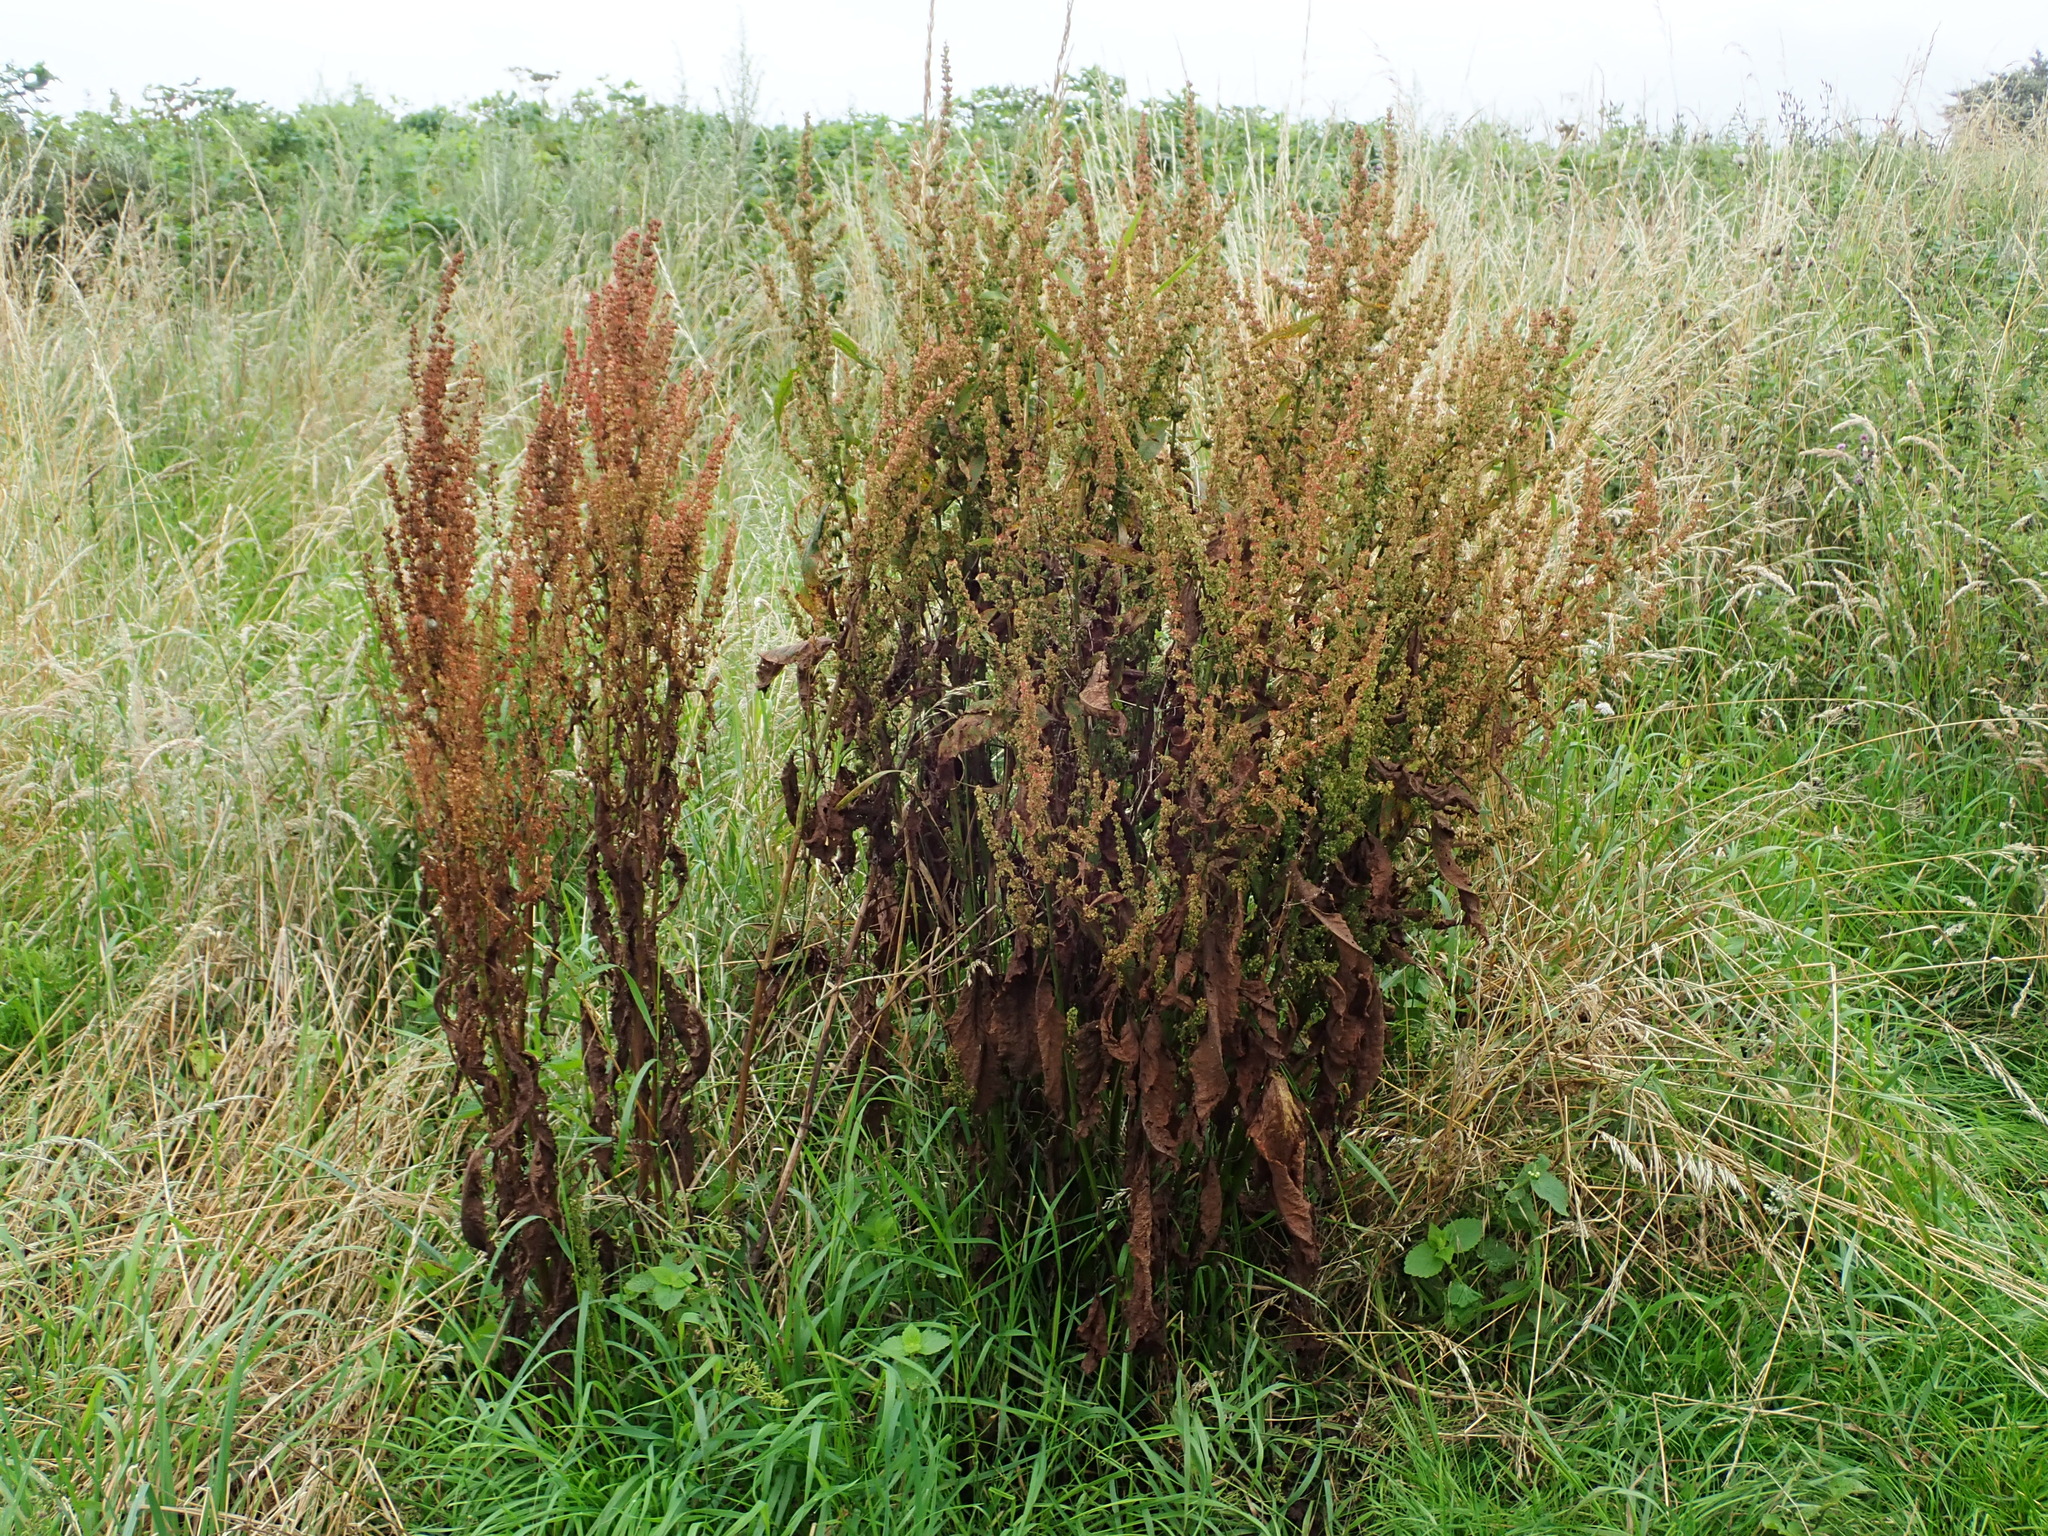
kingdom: Plantae
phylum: Tracheophyta
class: Magnoliopsida
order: Caryophyllales
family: Polygonaceae
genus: Rumex
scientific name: Rumex obtusifolius
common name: Bitter dock
